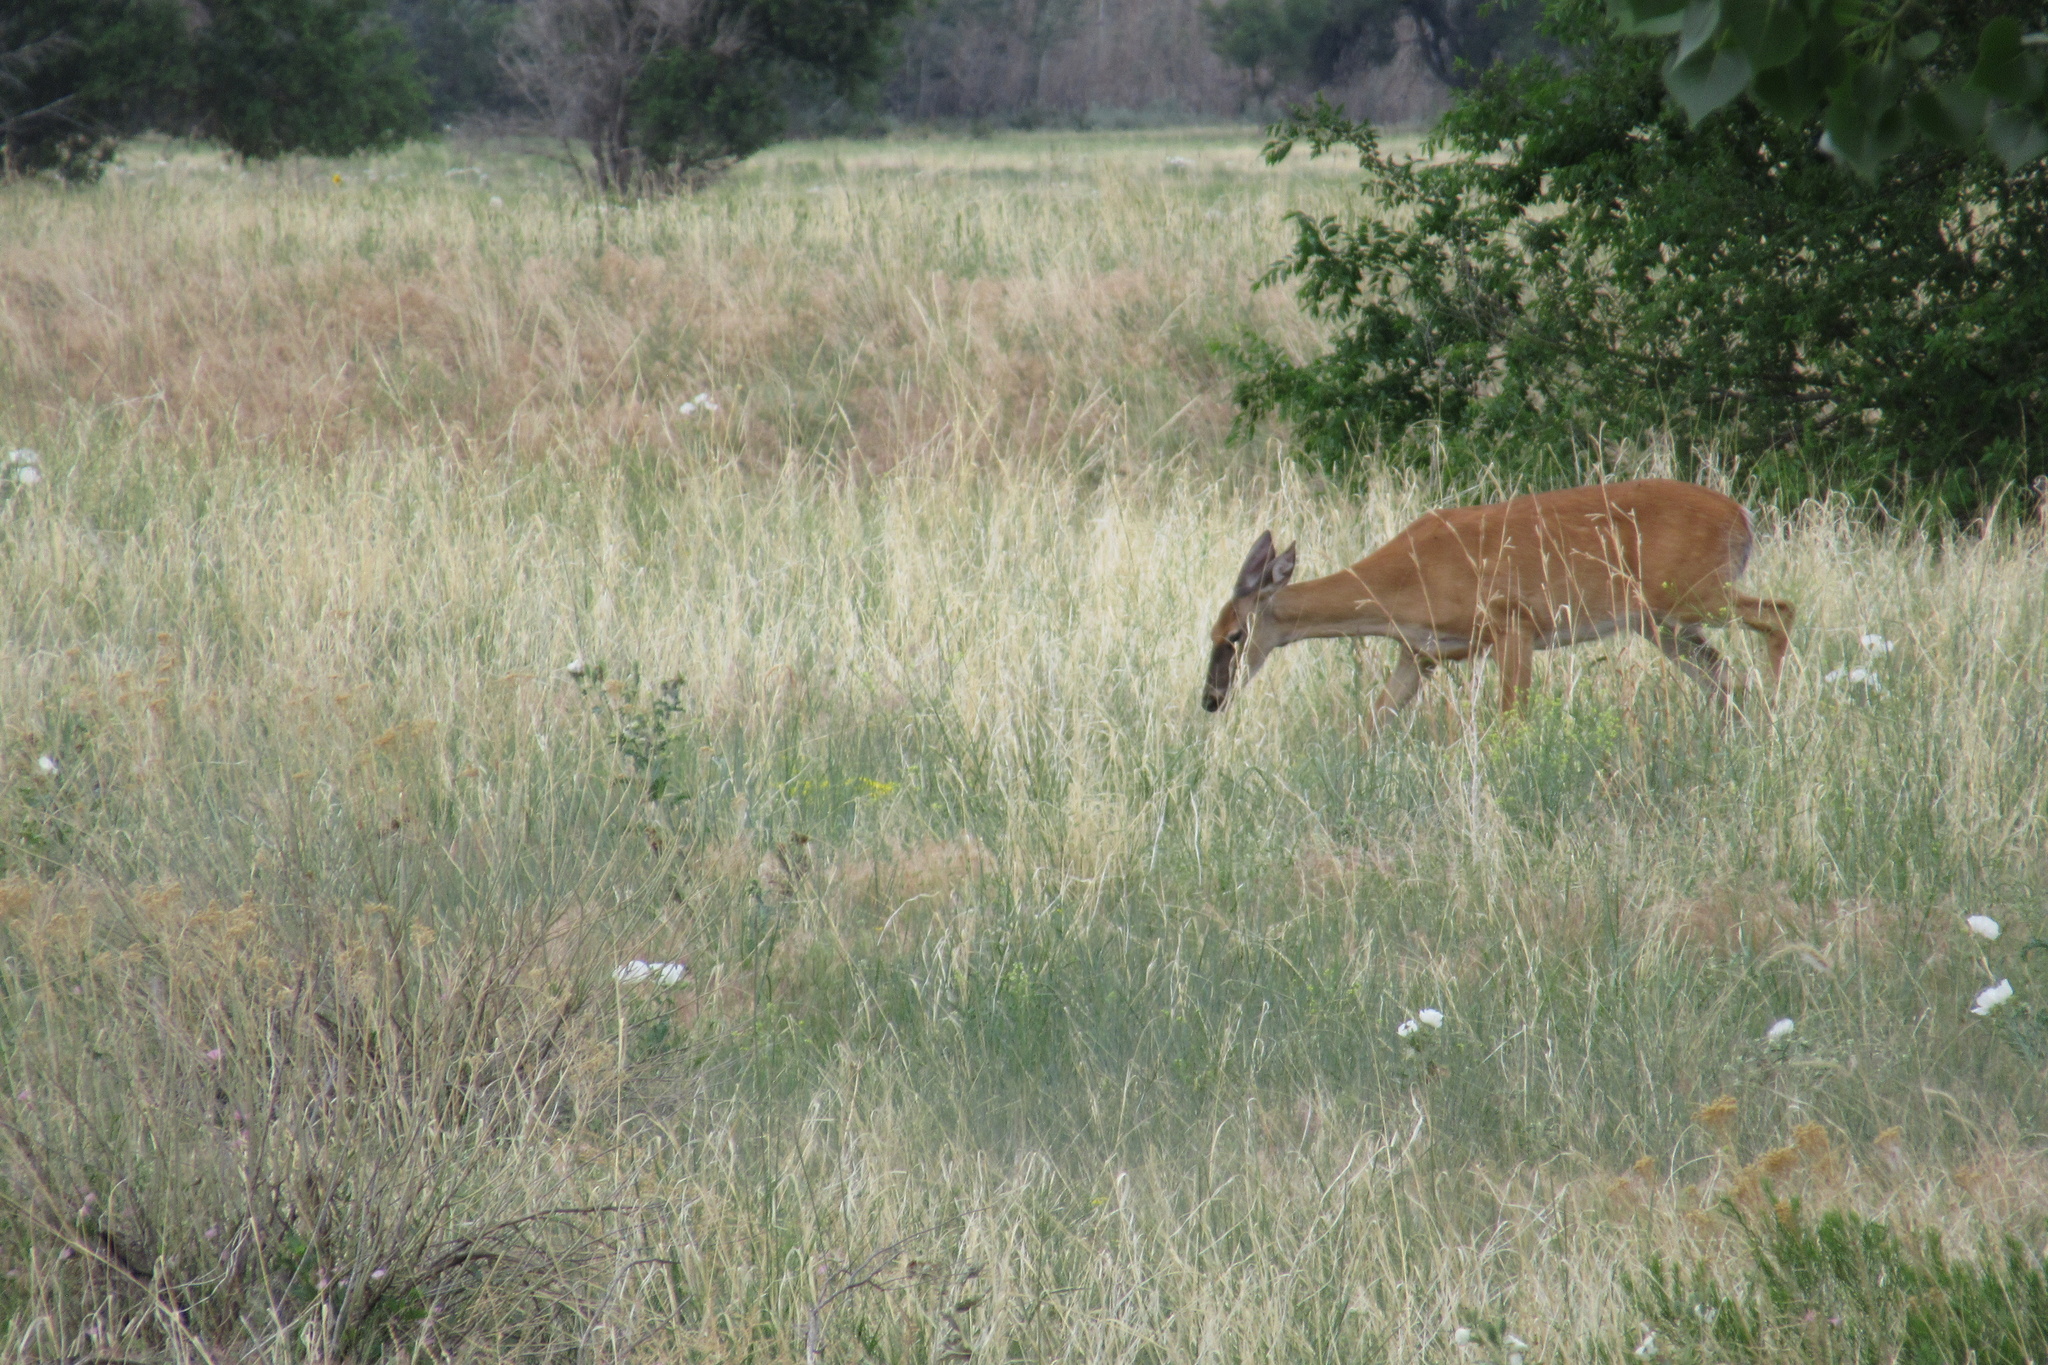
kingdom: Animalia
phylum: Chordata
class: Mammalia
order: Artiodactyla
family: Cervidae
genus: Odocoileus
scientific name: Odocoileus virginianus
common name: White-tailed deer
